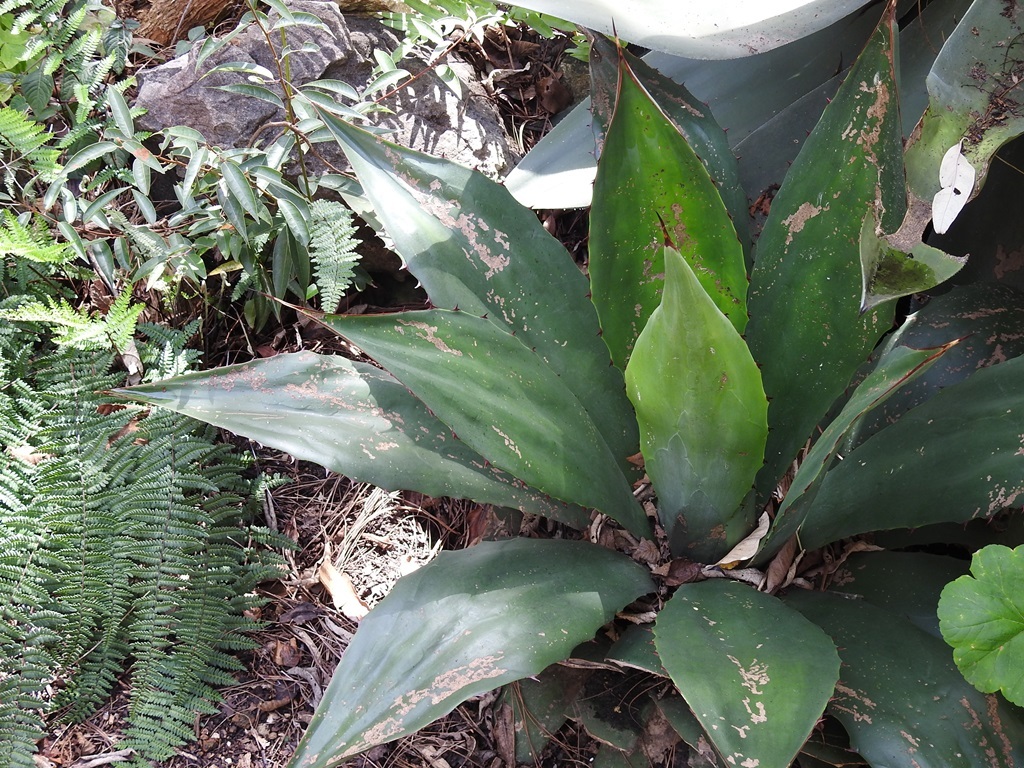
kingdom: Plantae
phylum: Tracheophyta
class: Liliopsida
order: Asparagales
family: Asparagaceae
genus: Agave
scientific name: Agave hiemiflora
